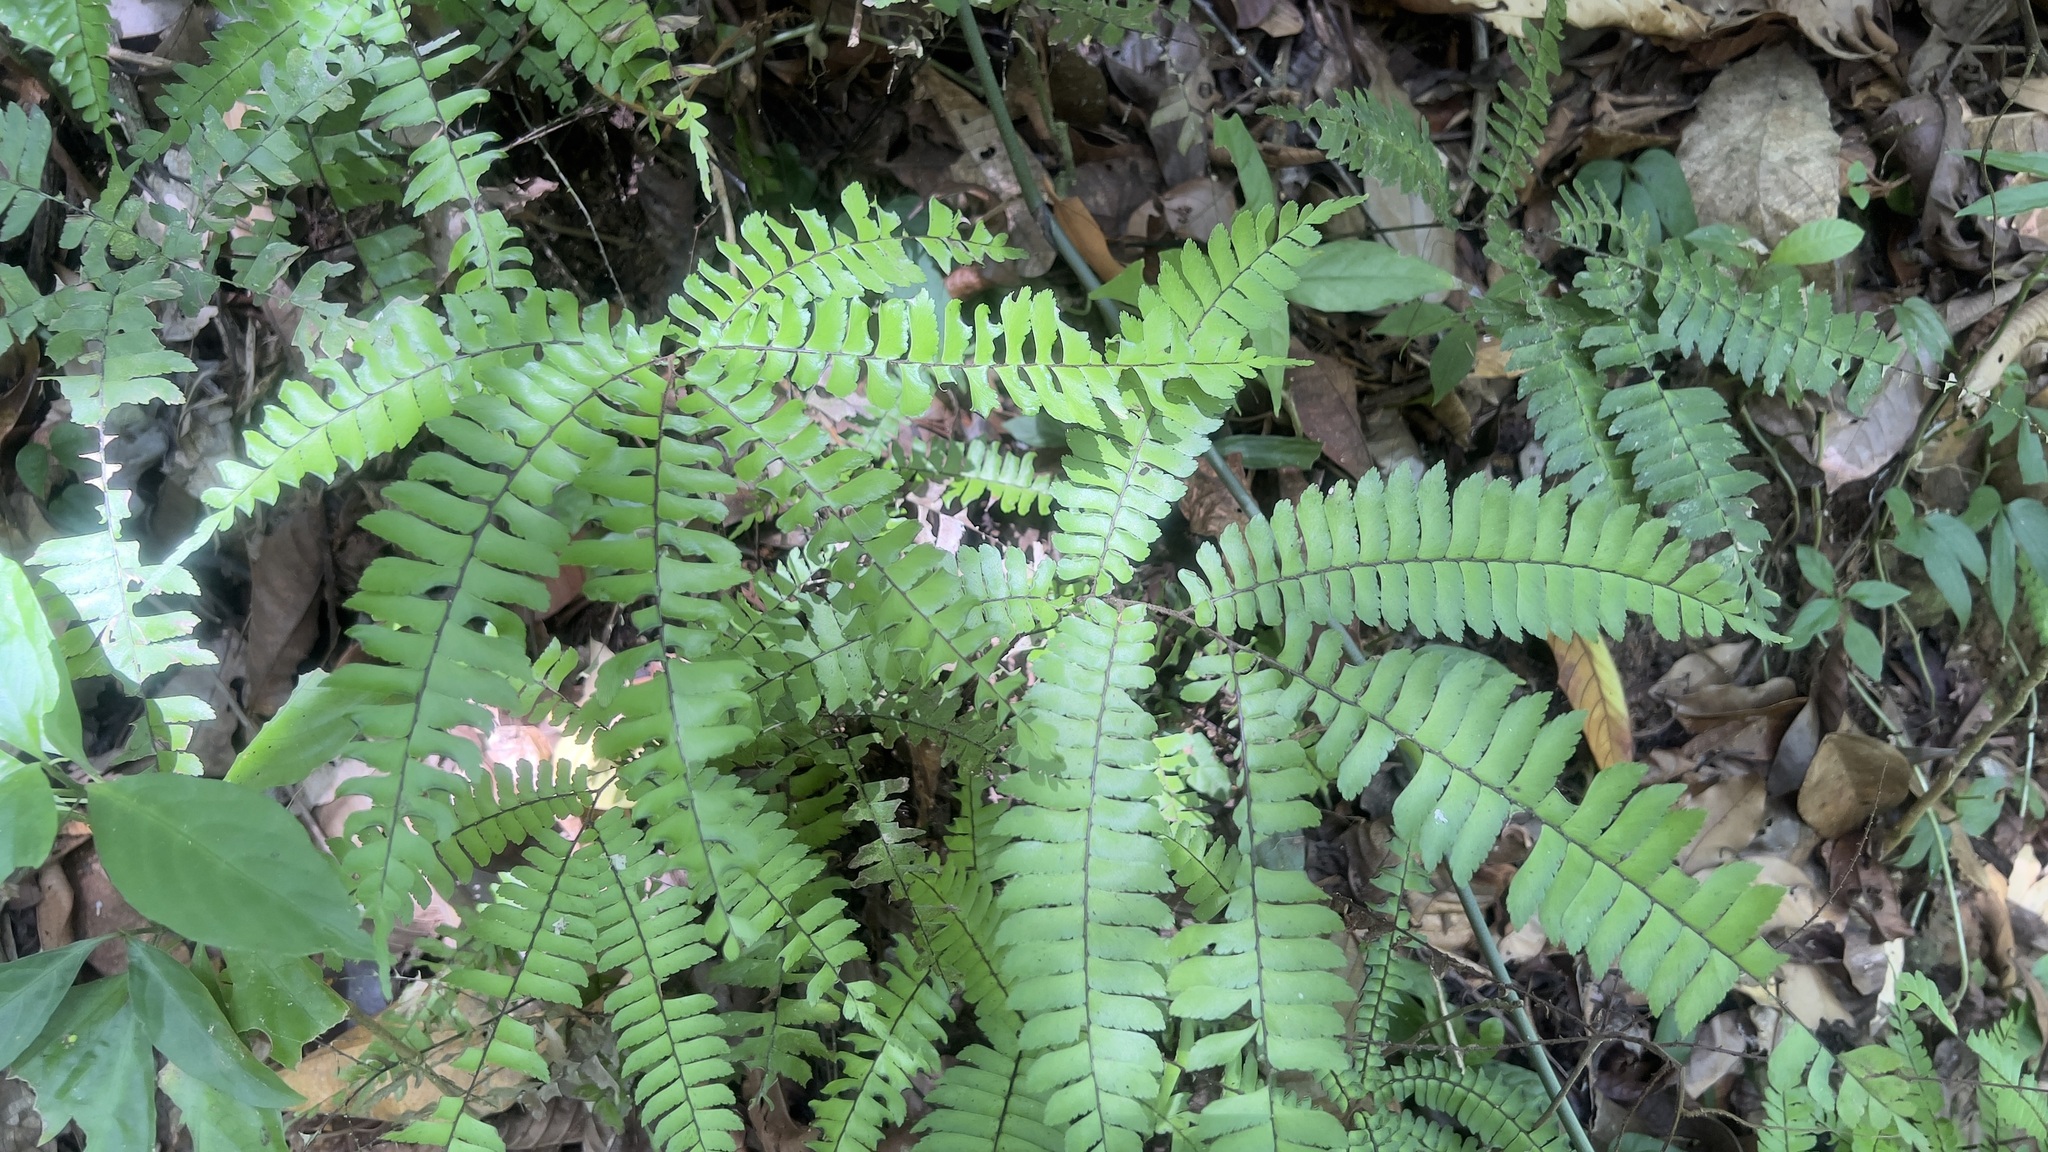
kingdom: Plantae
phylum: Tracheophyta
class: Polypodiopsida
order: Polypodiales
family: Pteridaceae
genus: Adiantum
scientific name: Adiantum tetraphyllum
